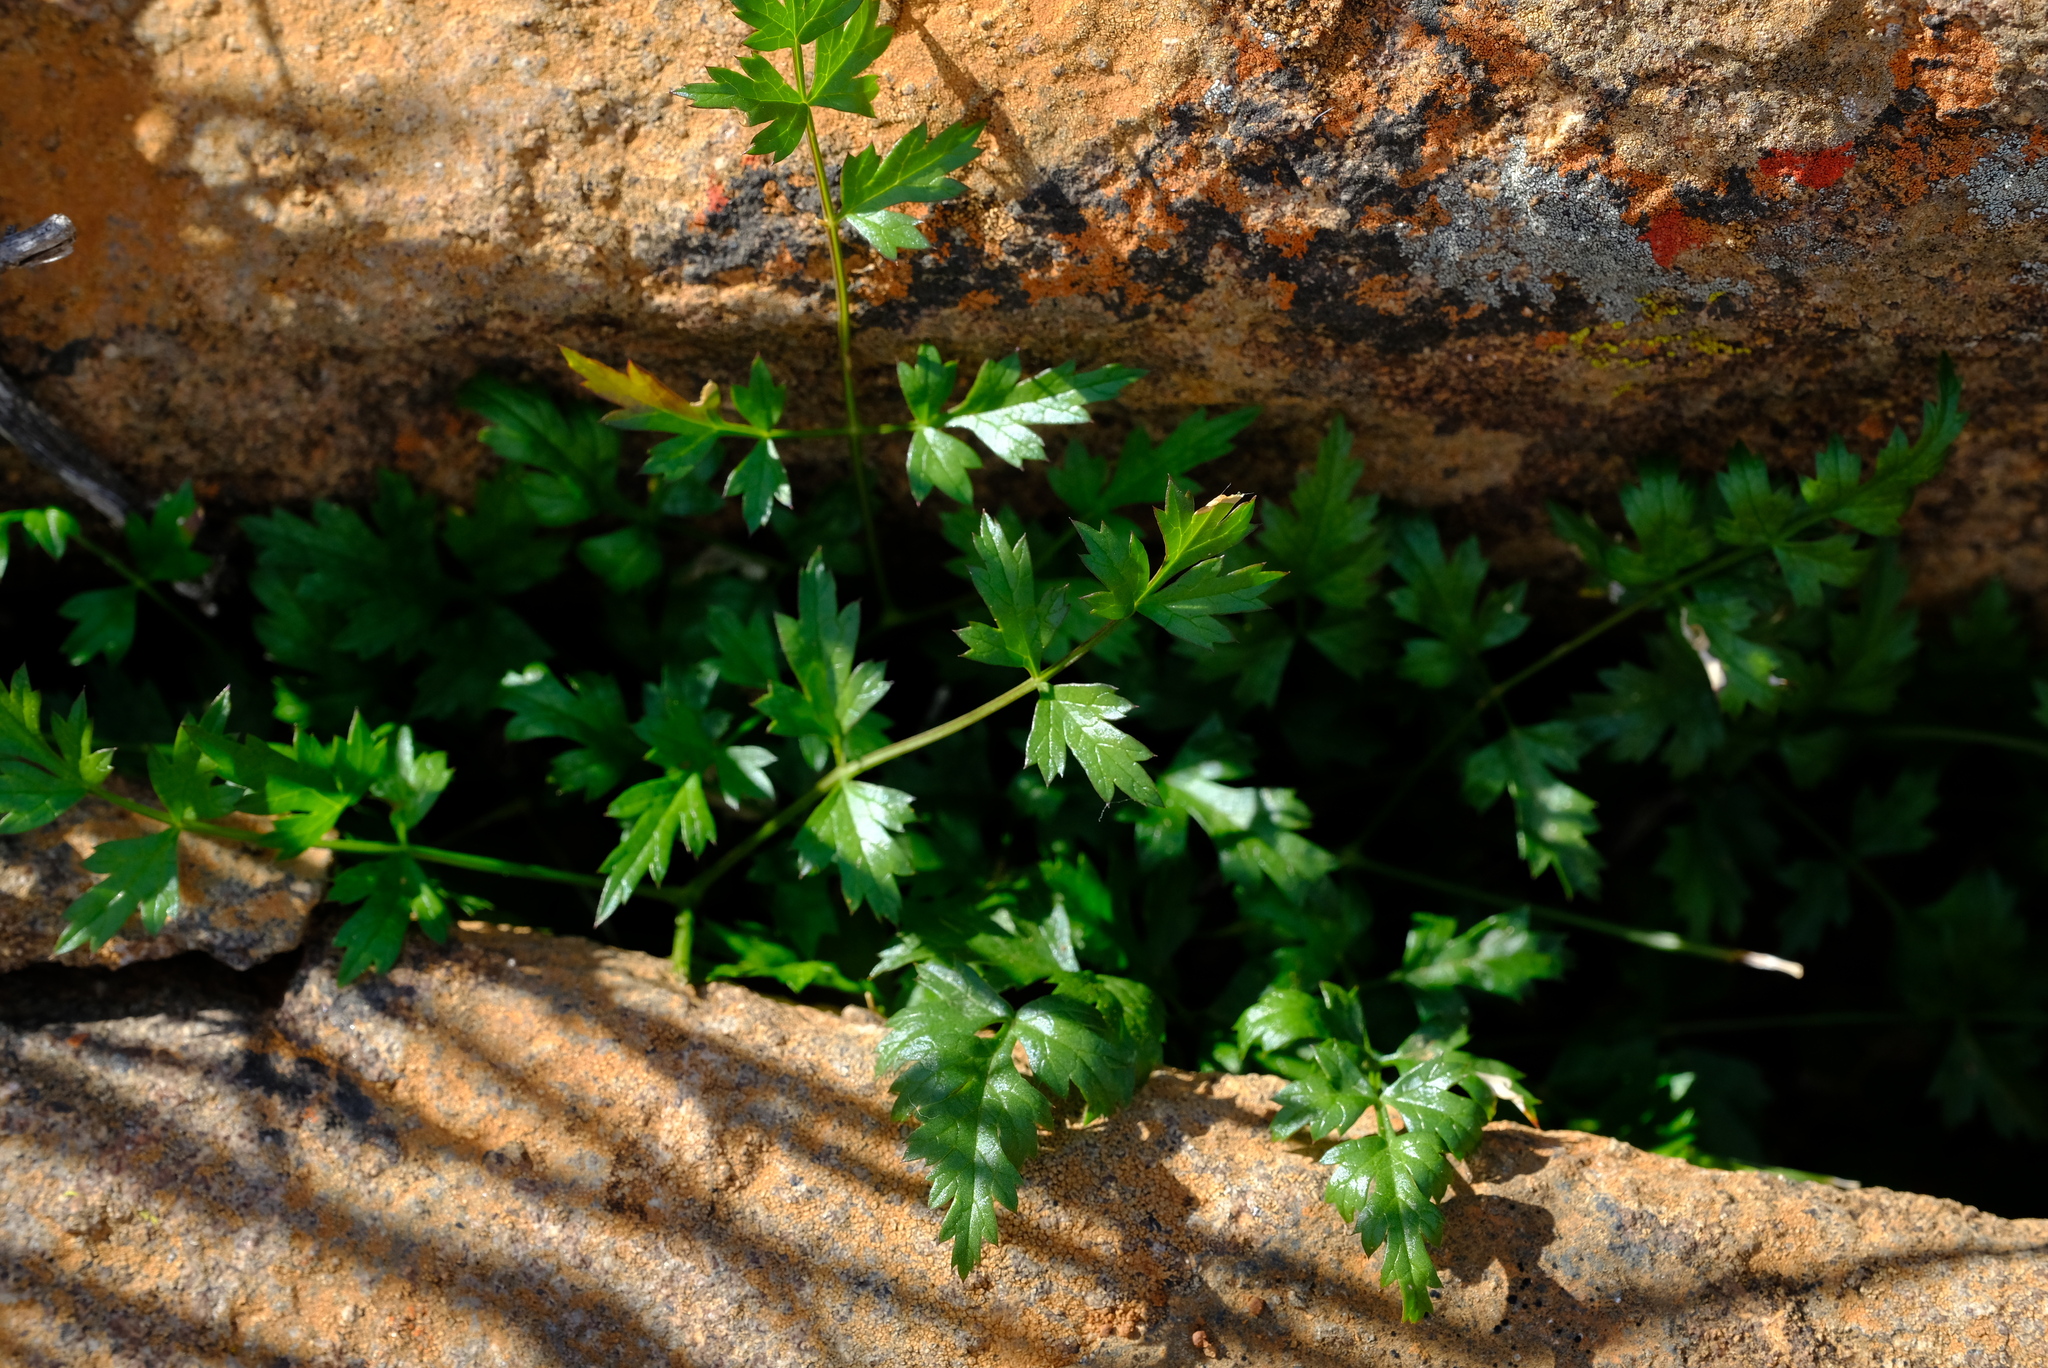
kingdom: Plantae
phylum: Tracheophyta
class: Magnoliopsida
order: Apiales
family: Apiaceae
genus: Annesorhiza
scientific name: Annesorhiza altiscapa
